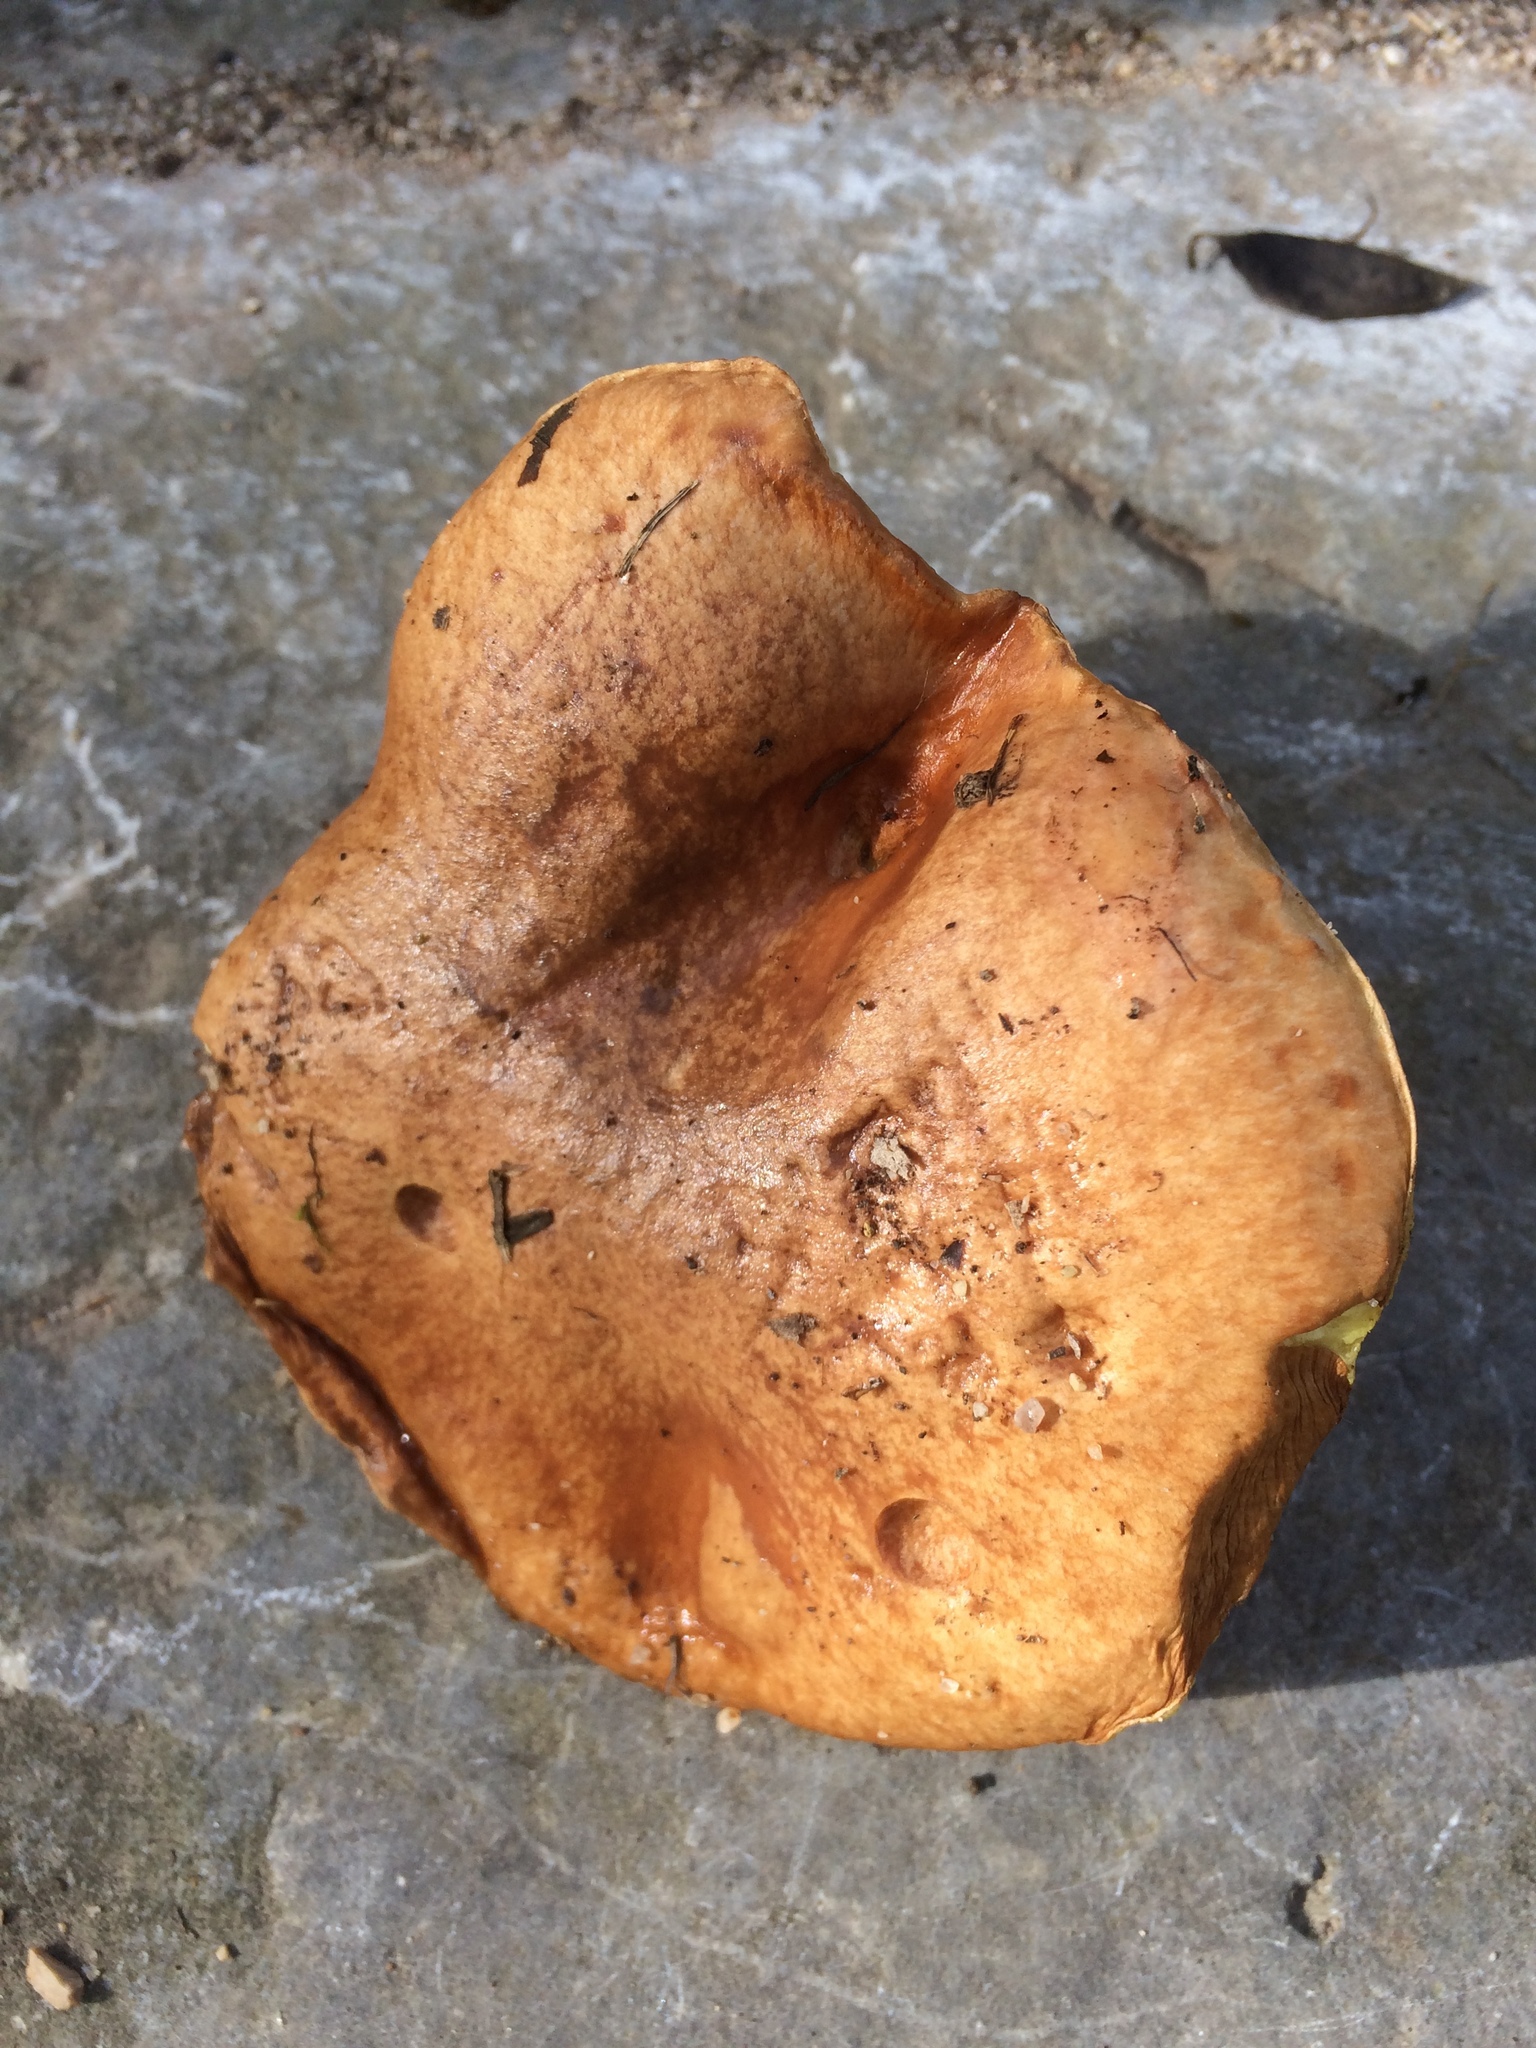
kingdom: Fungi
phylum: Basidiomycota
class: Agaricomycetes
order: Boletales
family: Suillaceae
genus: Suillus
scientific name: Suillus granulatus
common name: Weeping bolete
